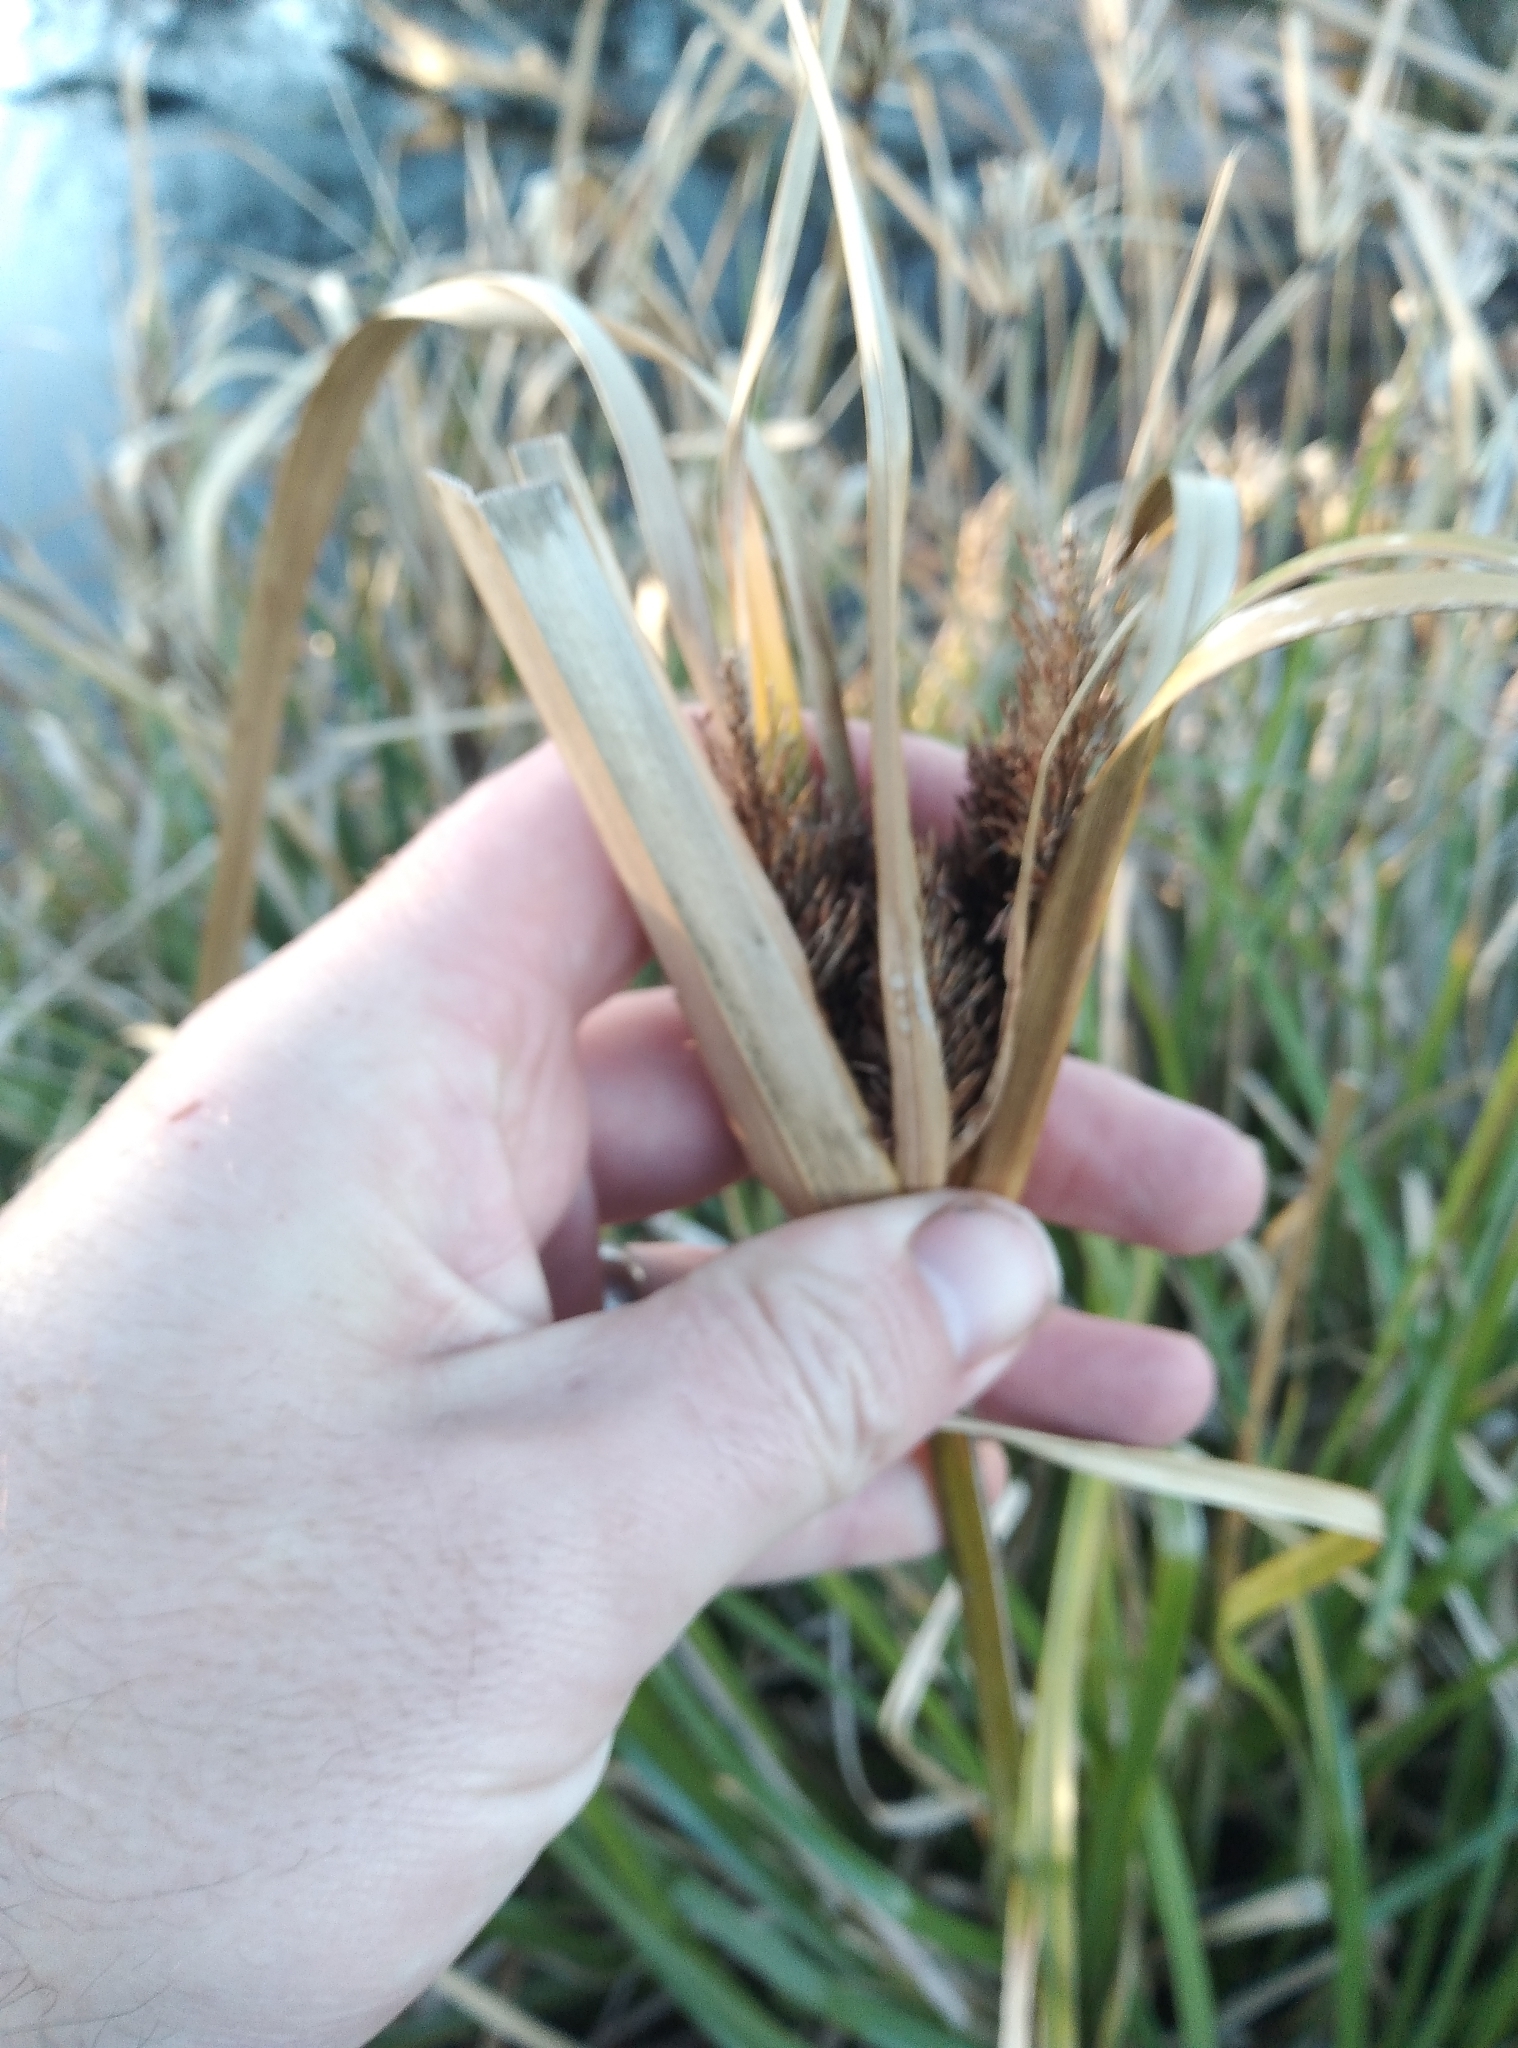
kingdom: Plantae
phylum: Tracheophyta
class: Liliopsida
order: Poales
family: Cyperaceae
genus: Cyperus
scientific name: Cyperus ustulatus
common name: Giant umbrella-sedge
